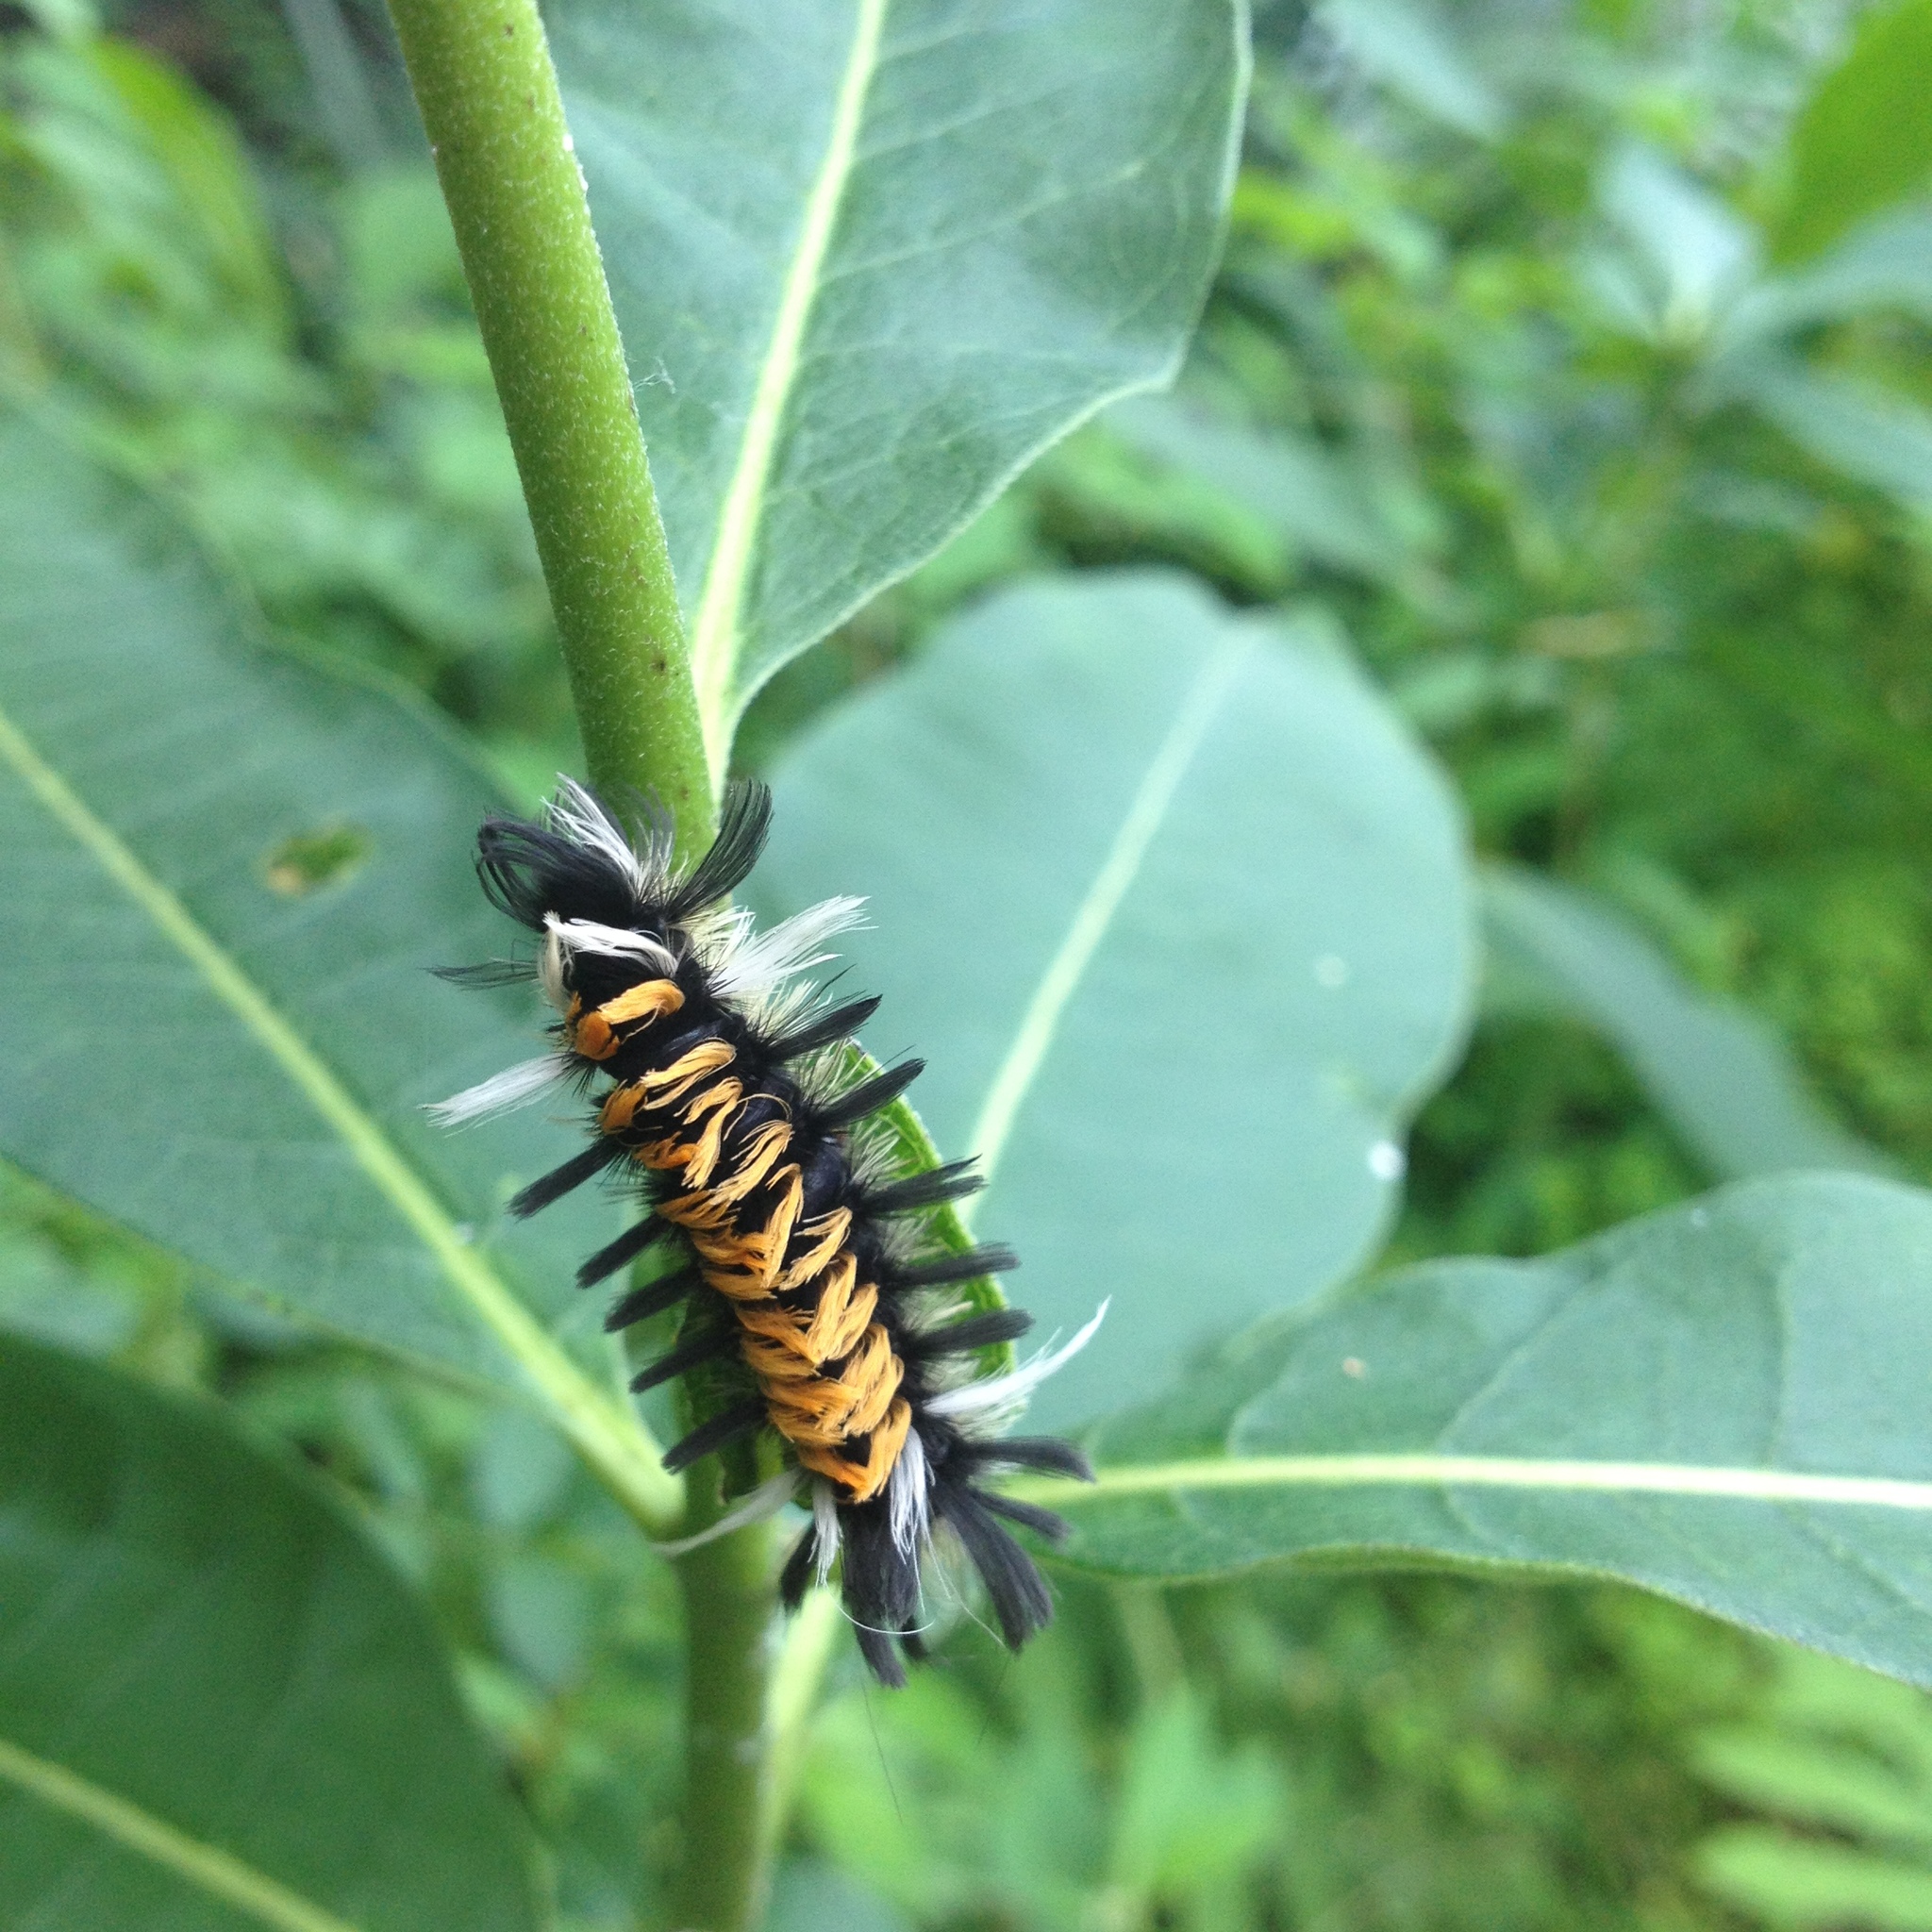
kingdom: Animalia
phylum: Arthropoda
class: Insecta
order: Lepidoptera
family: Erebidae
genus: Euchaetes
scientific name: Euchaetes egle
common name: Milkweed tussock moth
